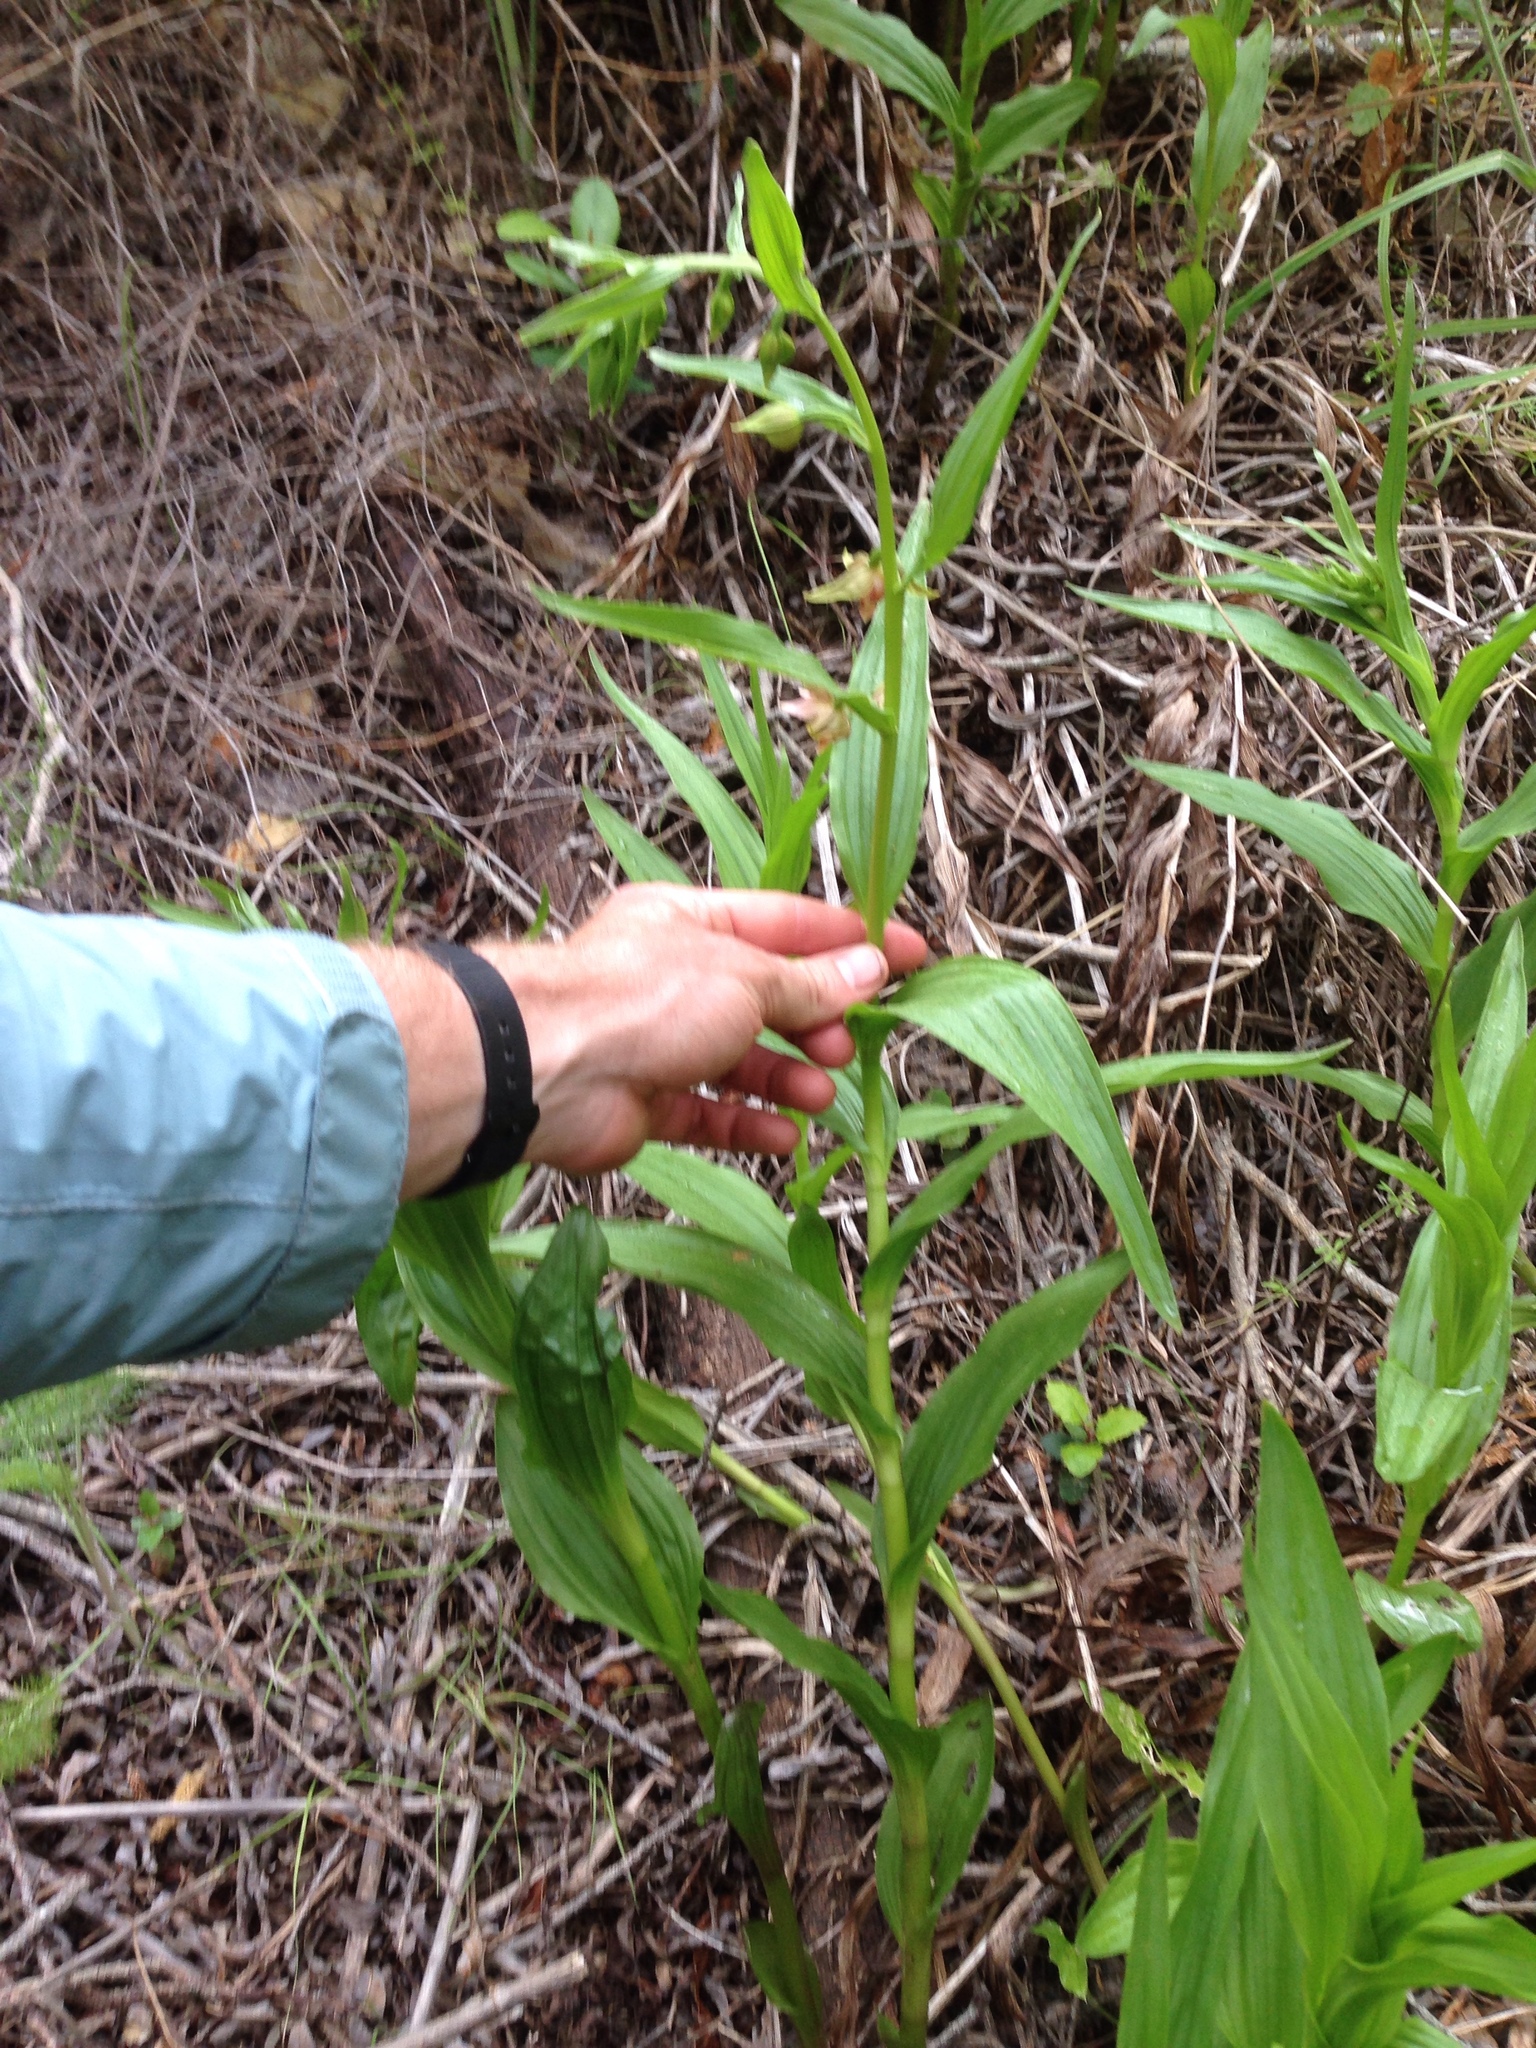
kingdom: Plantae
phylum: Tracheophyta
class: Liliopsida
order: Asparagales
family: Orchidaceae
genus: Epipactis
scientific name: Epipactis gigantea
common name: Chatterbox
